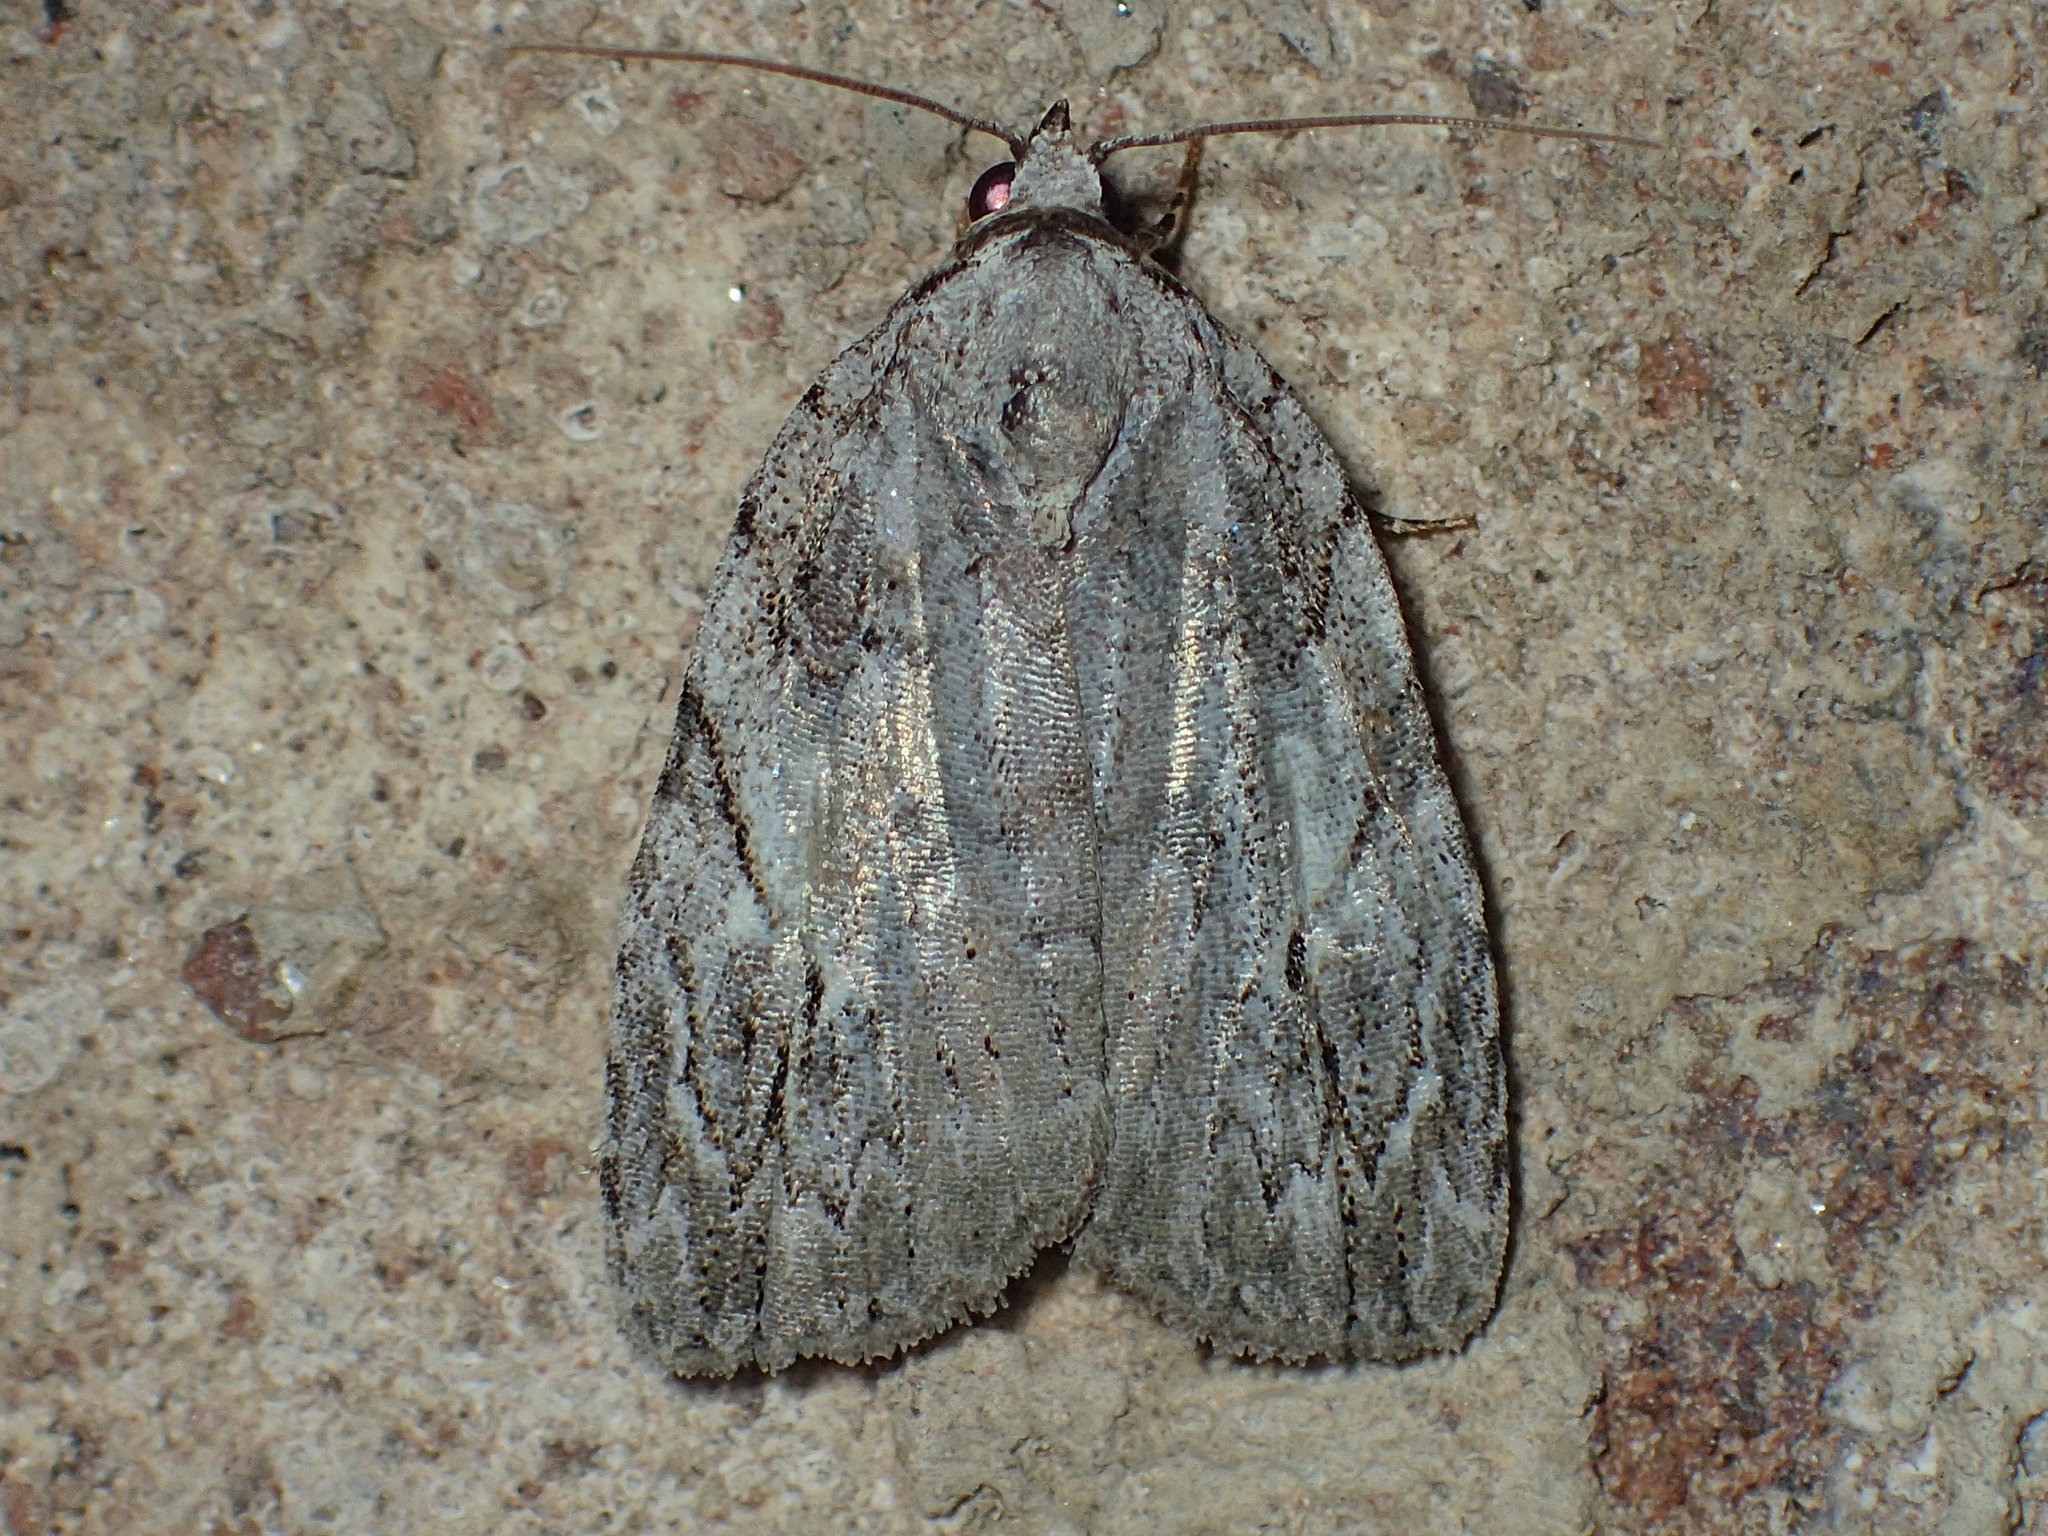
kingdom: Animalia
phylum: Arthropoda
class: Insecta
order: Lepidoptera
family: Noctuidae
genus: Balsa
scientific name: Balsa labecula
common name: White-blotched balsa moth
